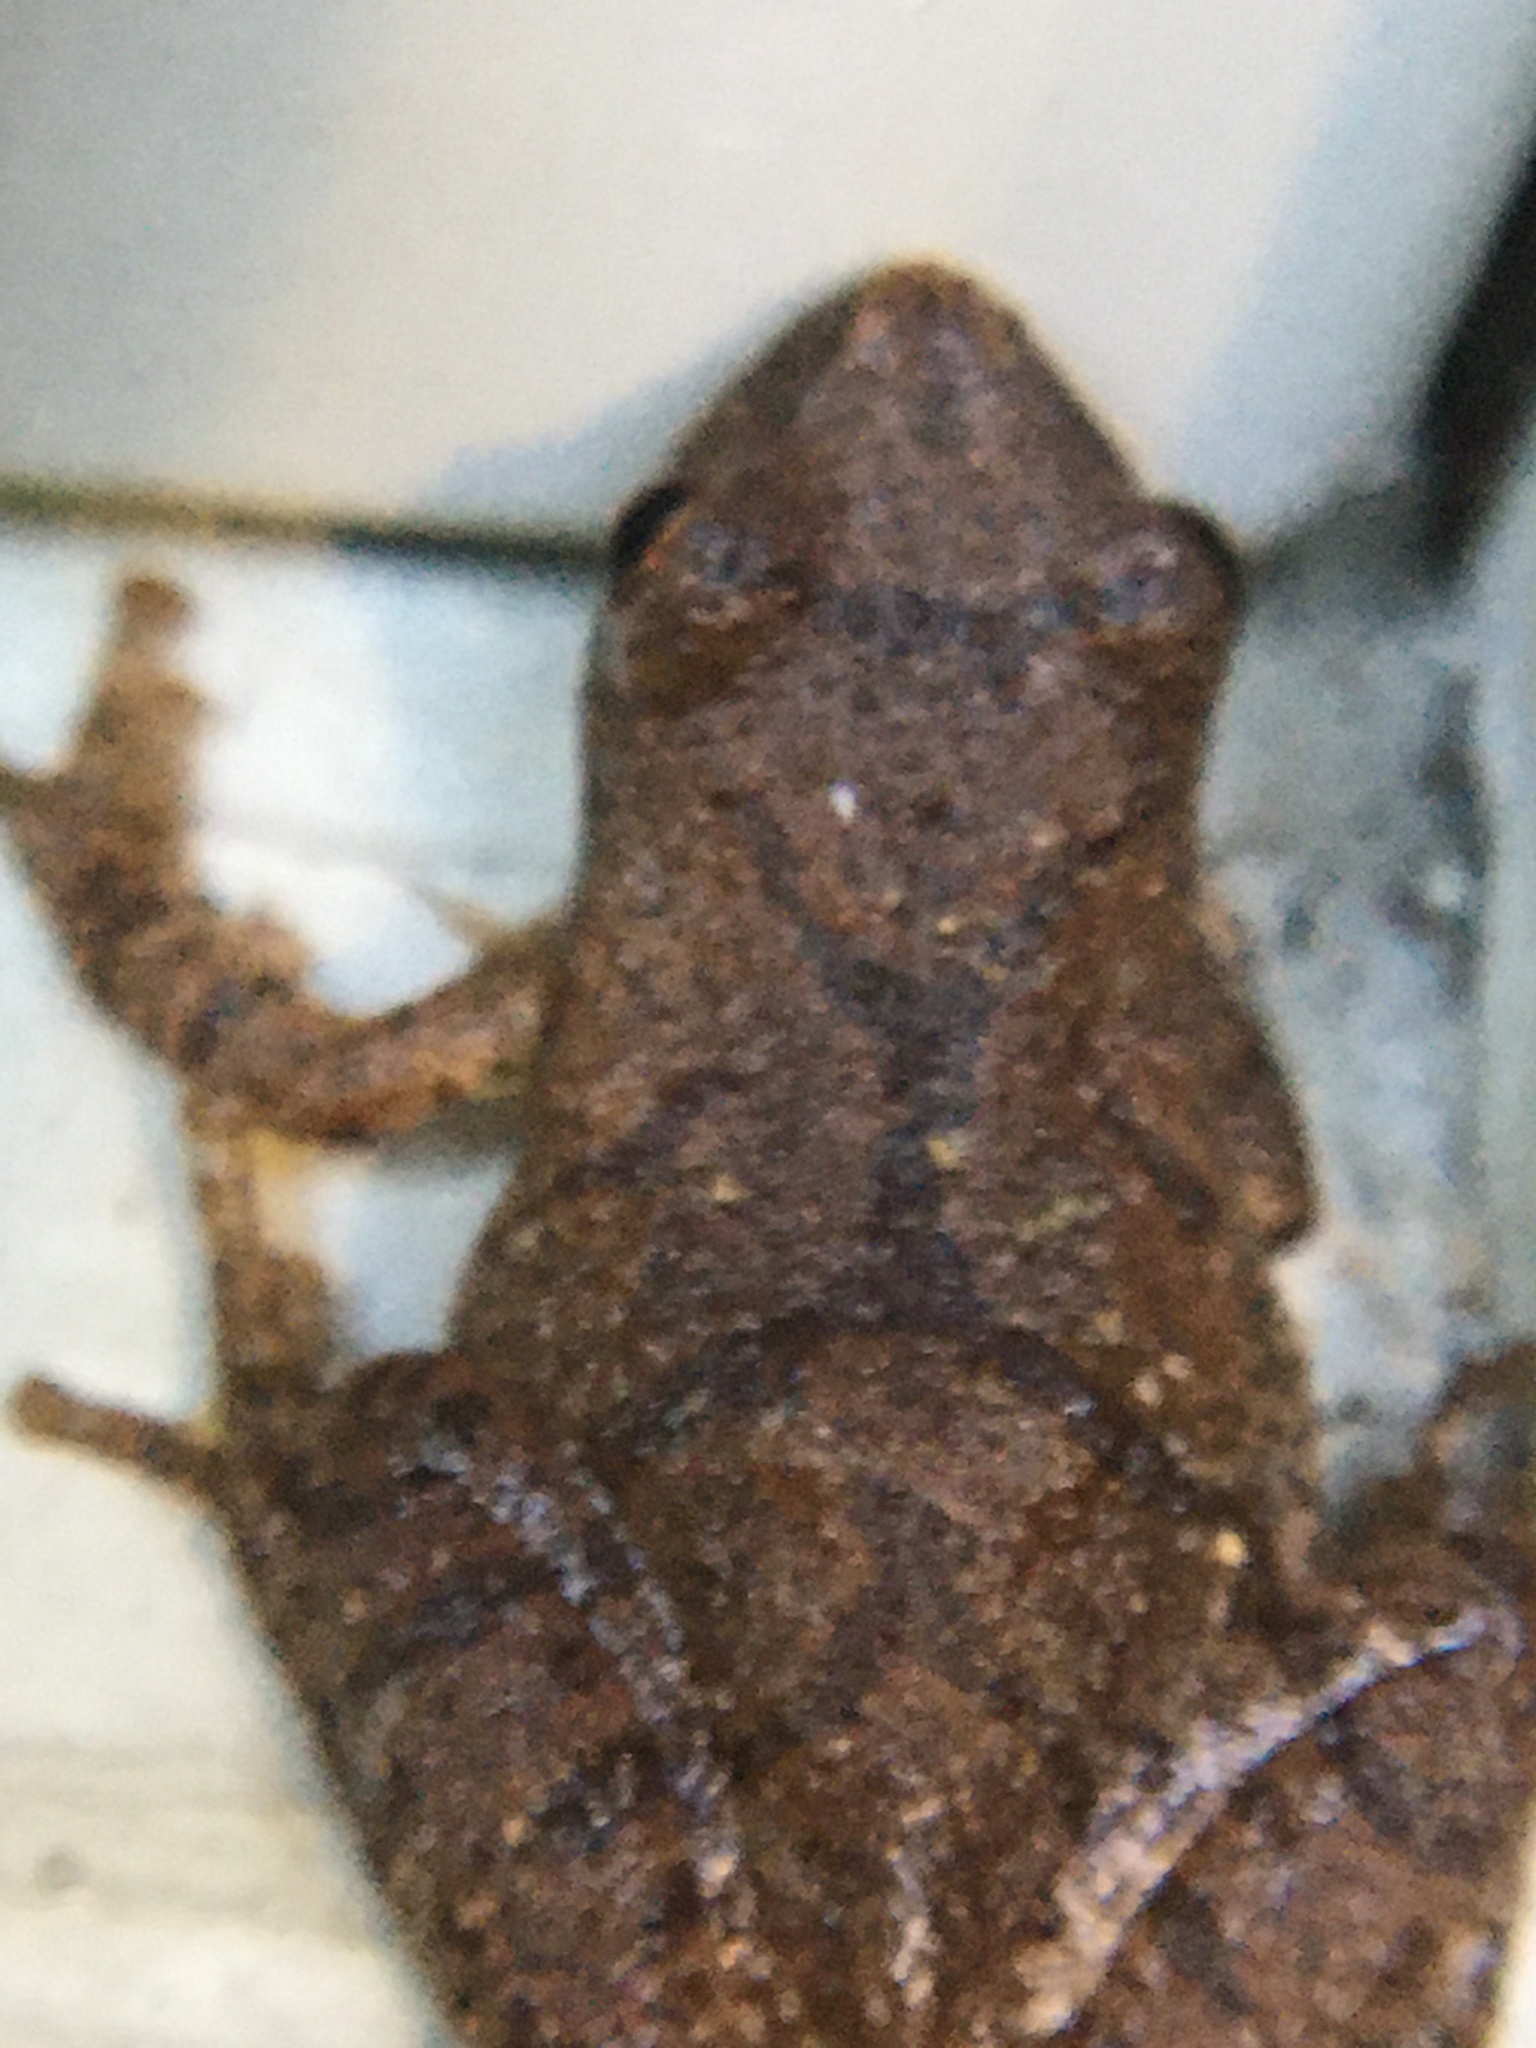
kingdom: Animalia
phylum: Chordata
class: Amphibia
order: Anura
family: Hylidae
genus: Pseudacris
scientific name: Pseudacris crucifer
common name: Spring peeper
